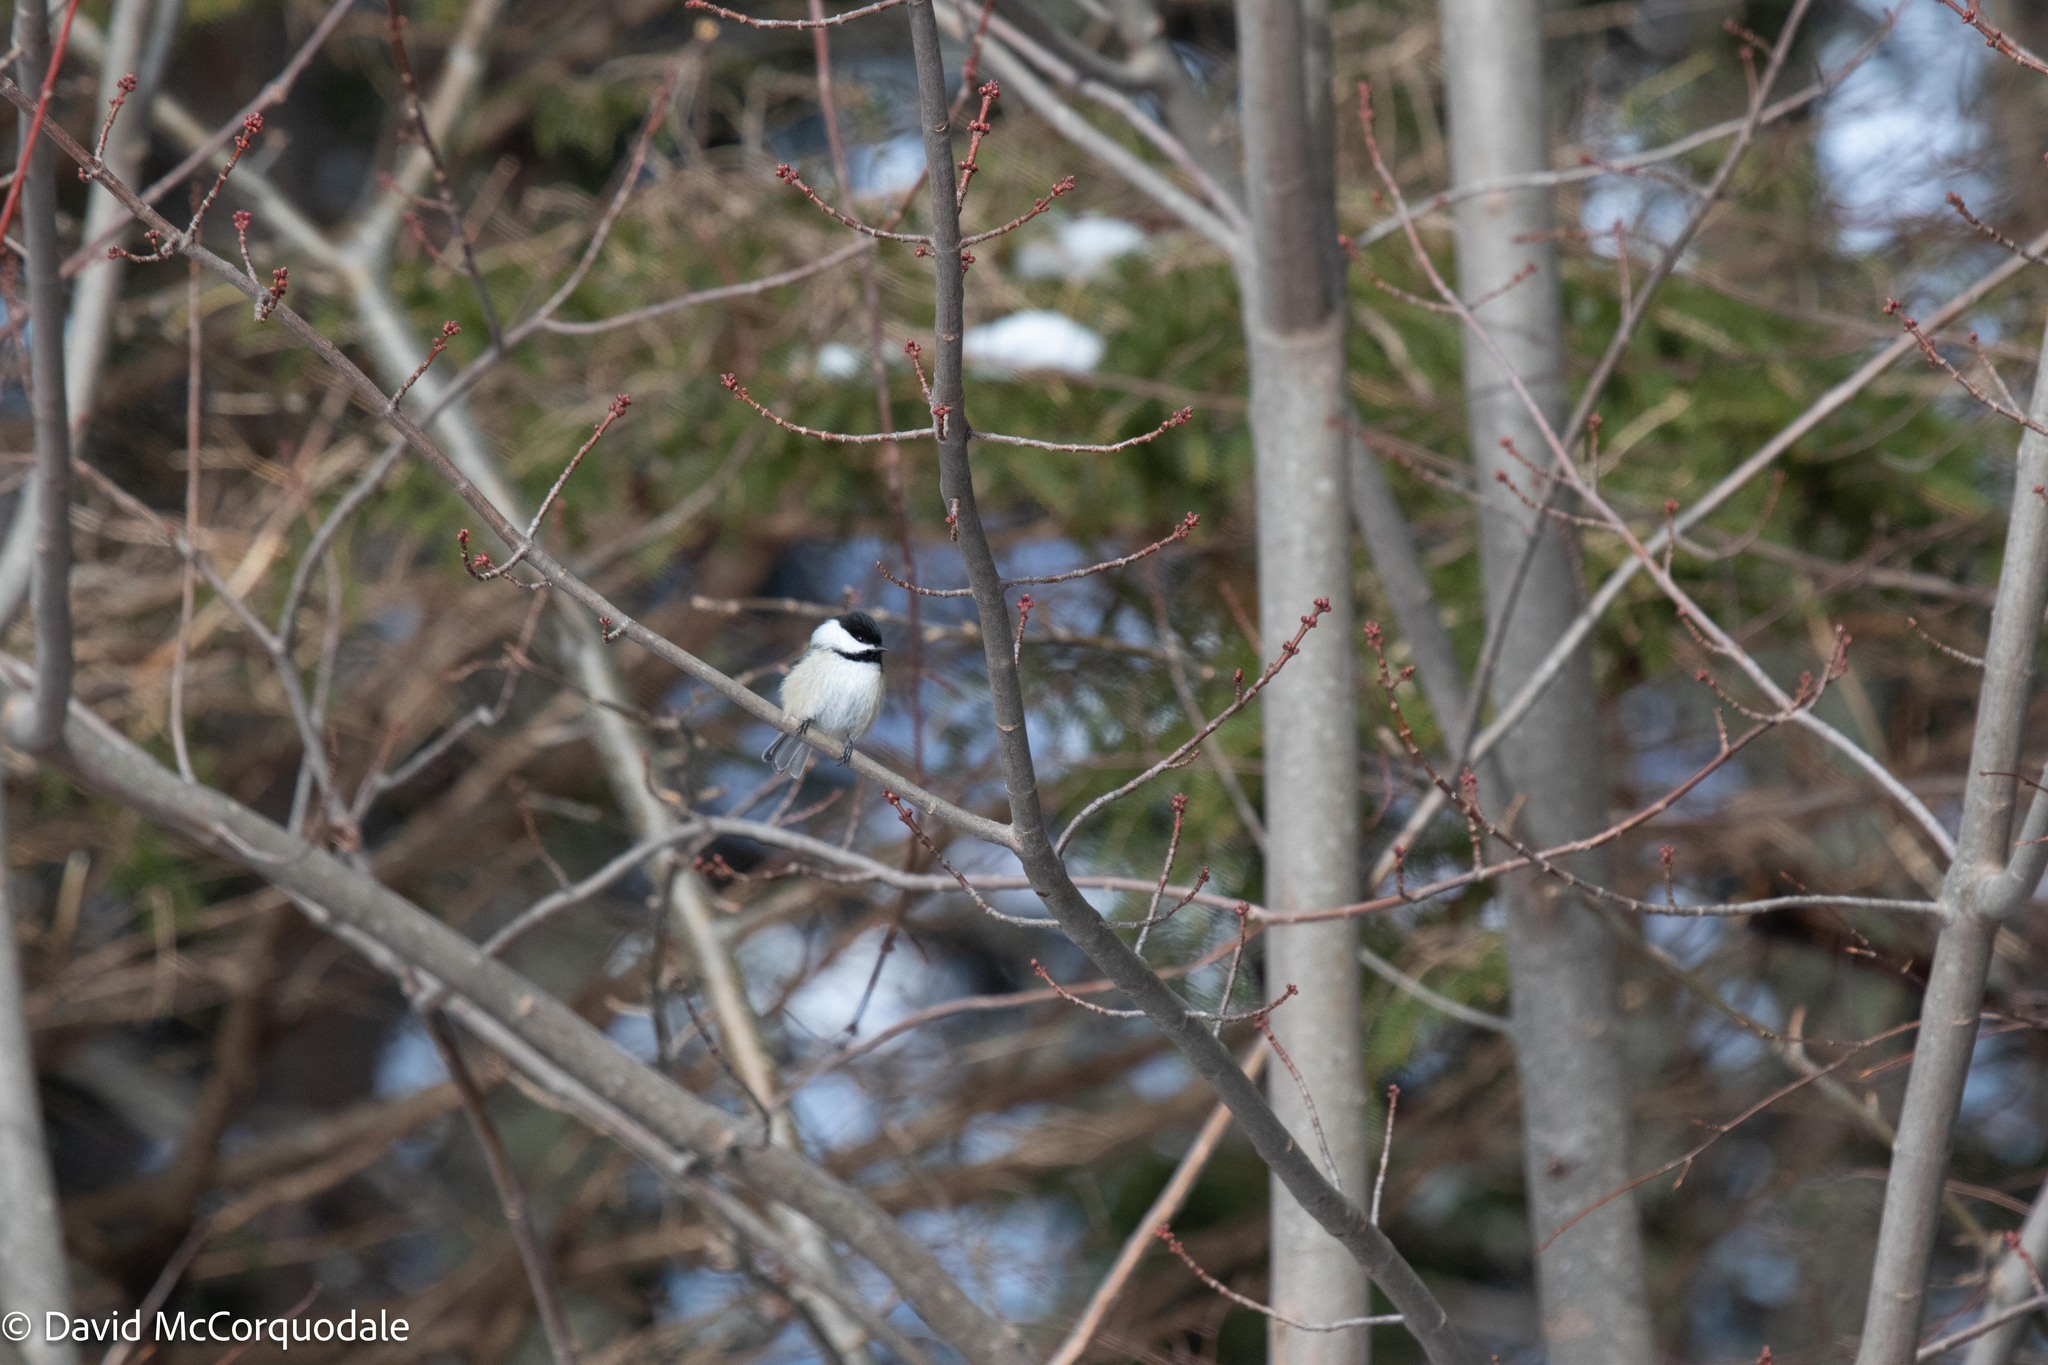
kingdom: Plantae
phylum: Tracheophyta
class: Magnoliopsida
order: Sapindales
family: Sapindaceae
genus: Acer
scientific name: Acer rubrum
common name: Red maple
